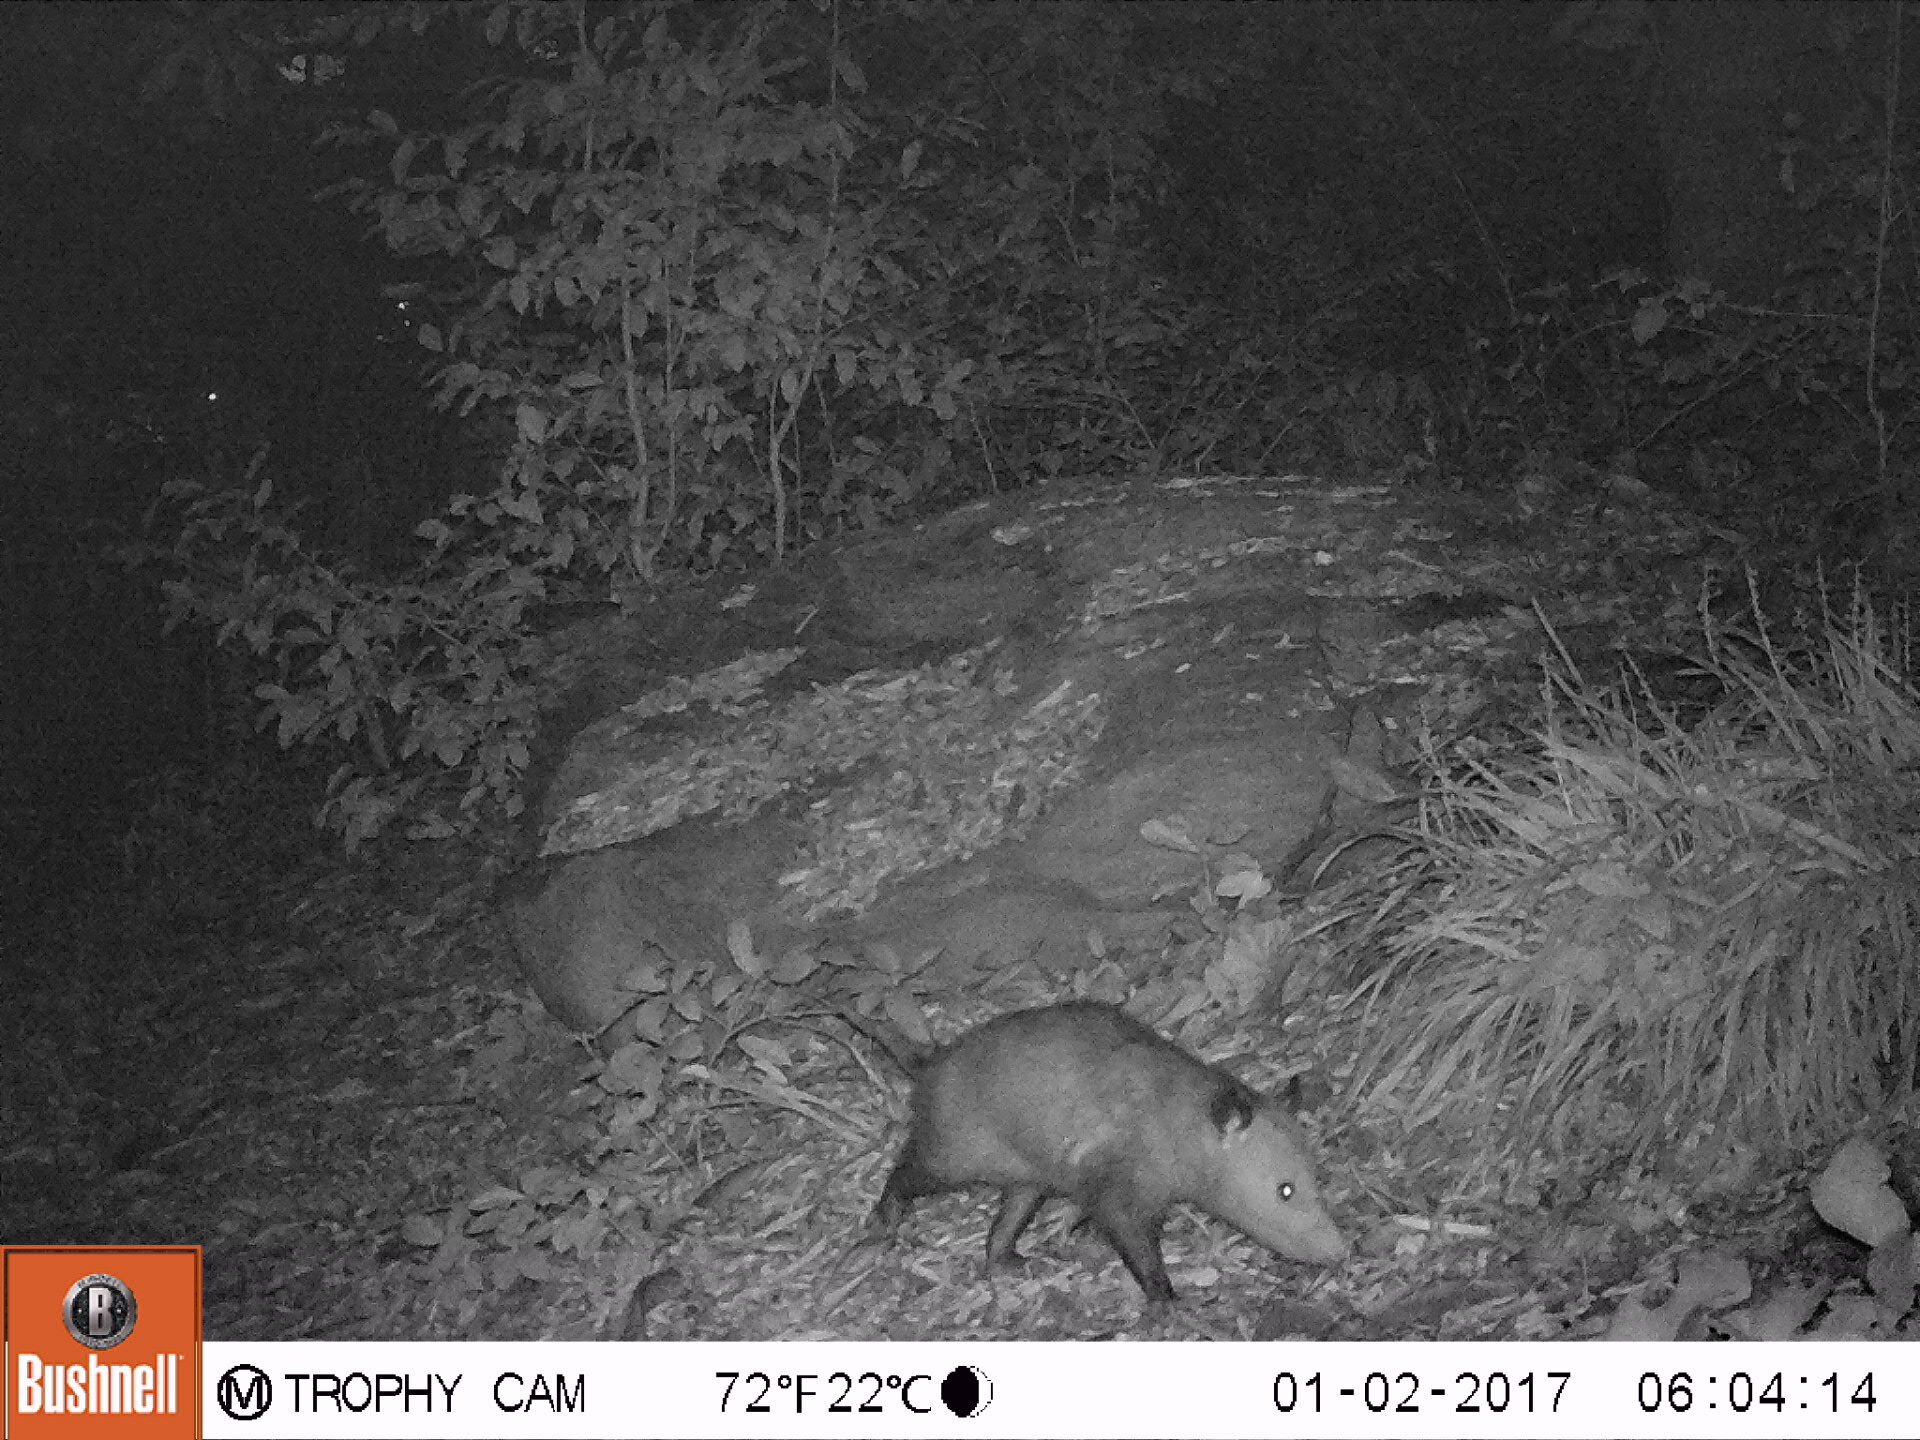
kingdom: Animalia
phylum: Chordata
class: Mammalia
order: Didelphimorphia
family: Didelphidae
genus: Didelphis
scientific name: Didelphis virginiana
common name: Virginia opossum
